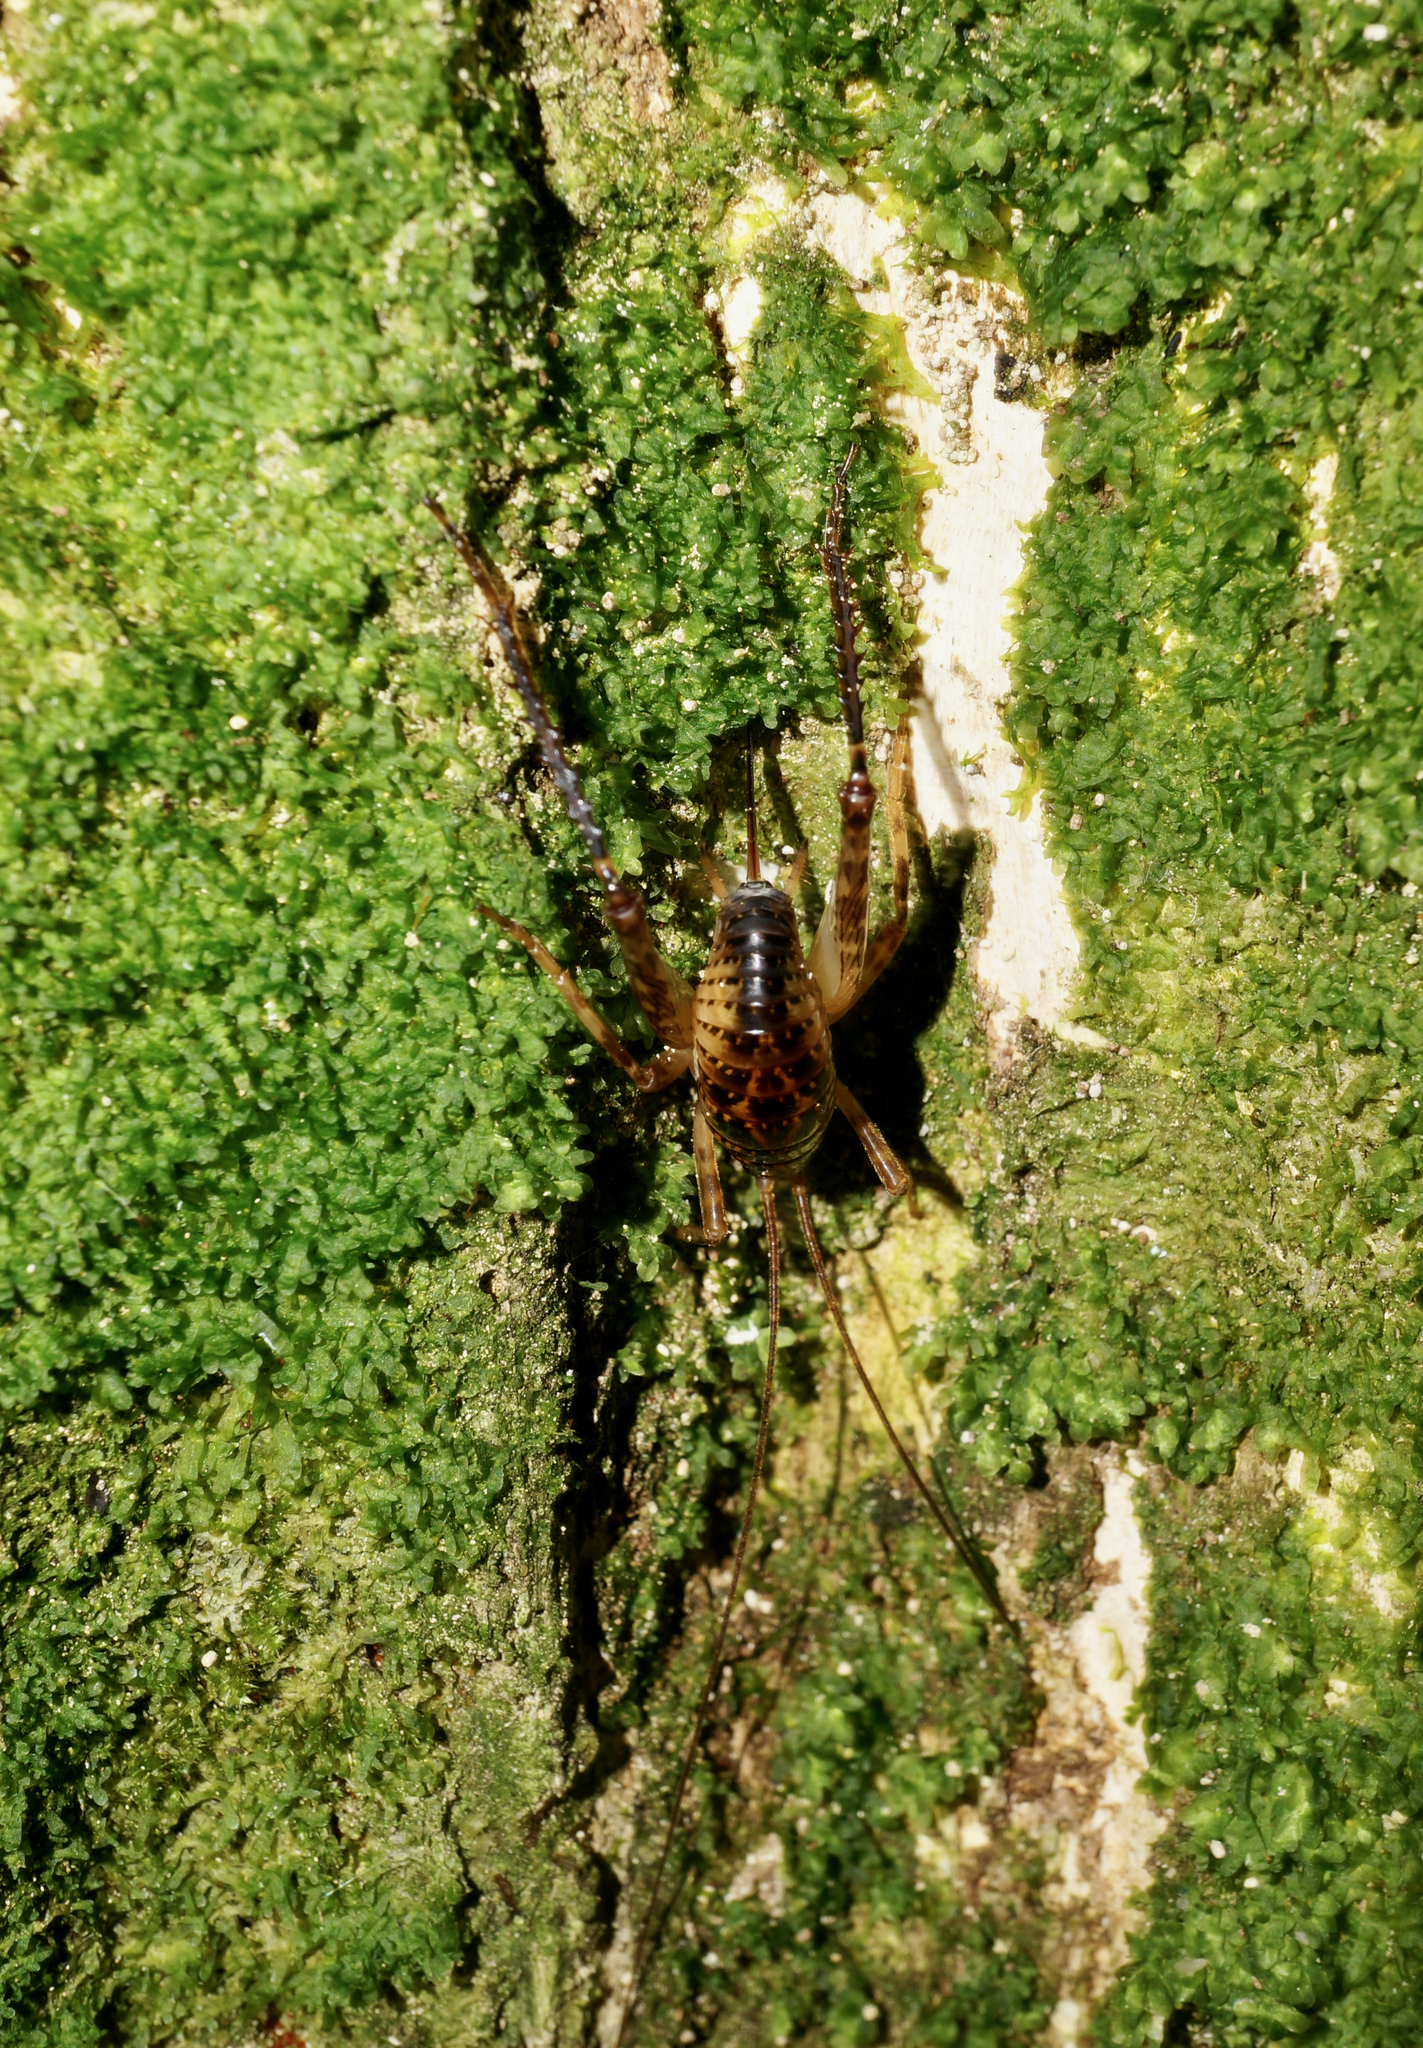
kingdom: Animalia
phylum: Arthropoda
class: Insecta
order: Orthoptera
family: Rhaphidophoridae
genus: Talitropsis
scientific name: Talitropsis sedilloti
